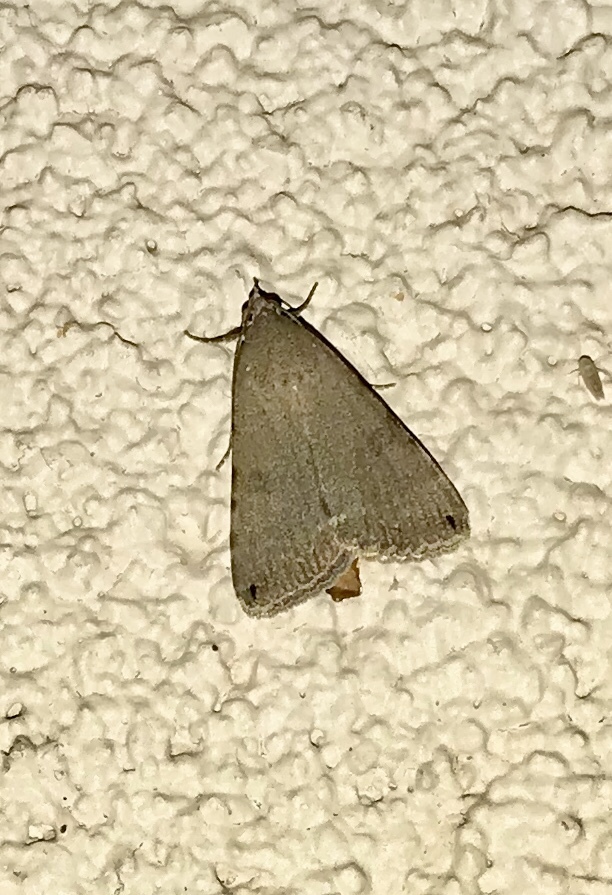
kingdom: Animalia
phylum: Arthropoda
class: Insecta
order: Lepidoptera
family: Erebidae
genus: Bulia
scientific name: Bulia deducta
